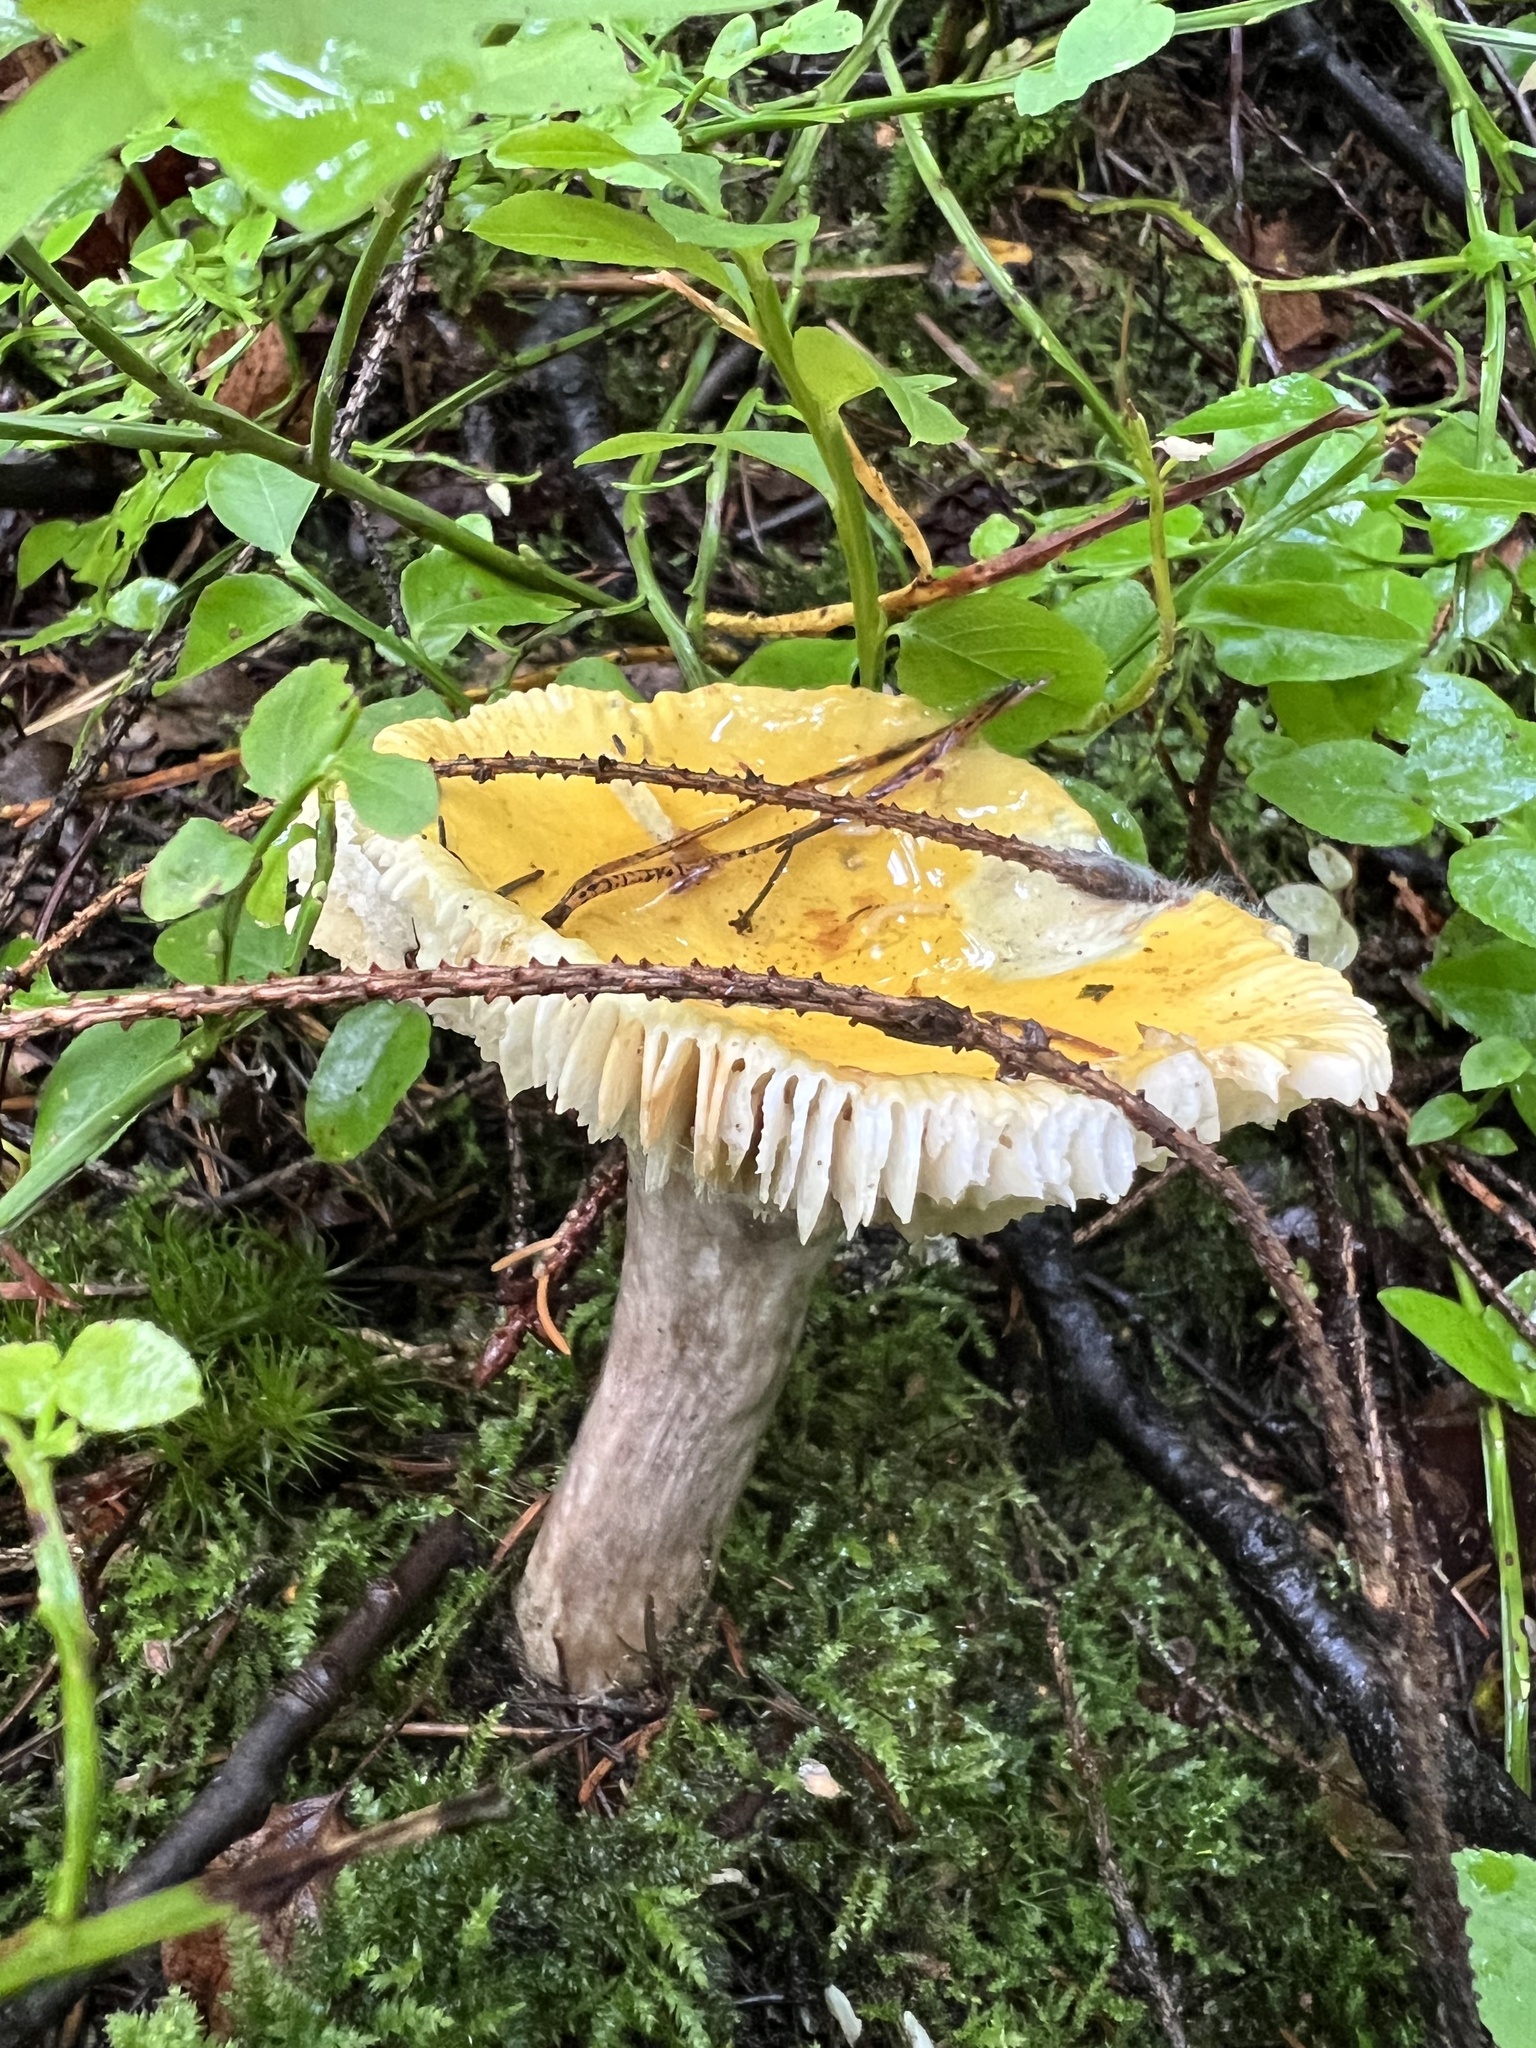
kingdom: Fungi
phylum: Basidiomycota
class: Agaricomycetes
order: Russulales
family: Russulaceae
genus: Russula
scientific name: Russula claroflava
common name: The yellow swamp brittlegill
